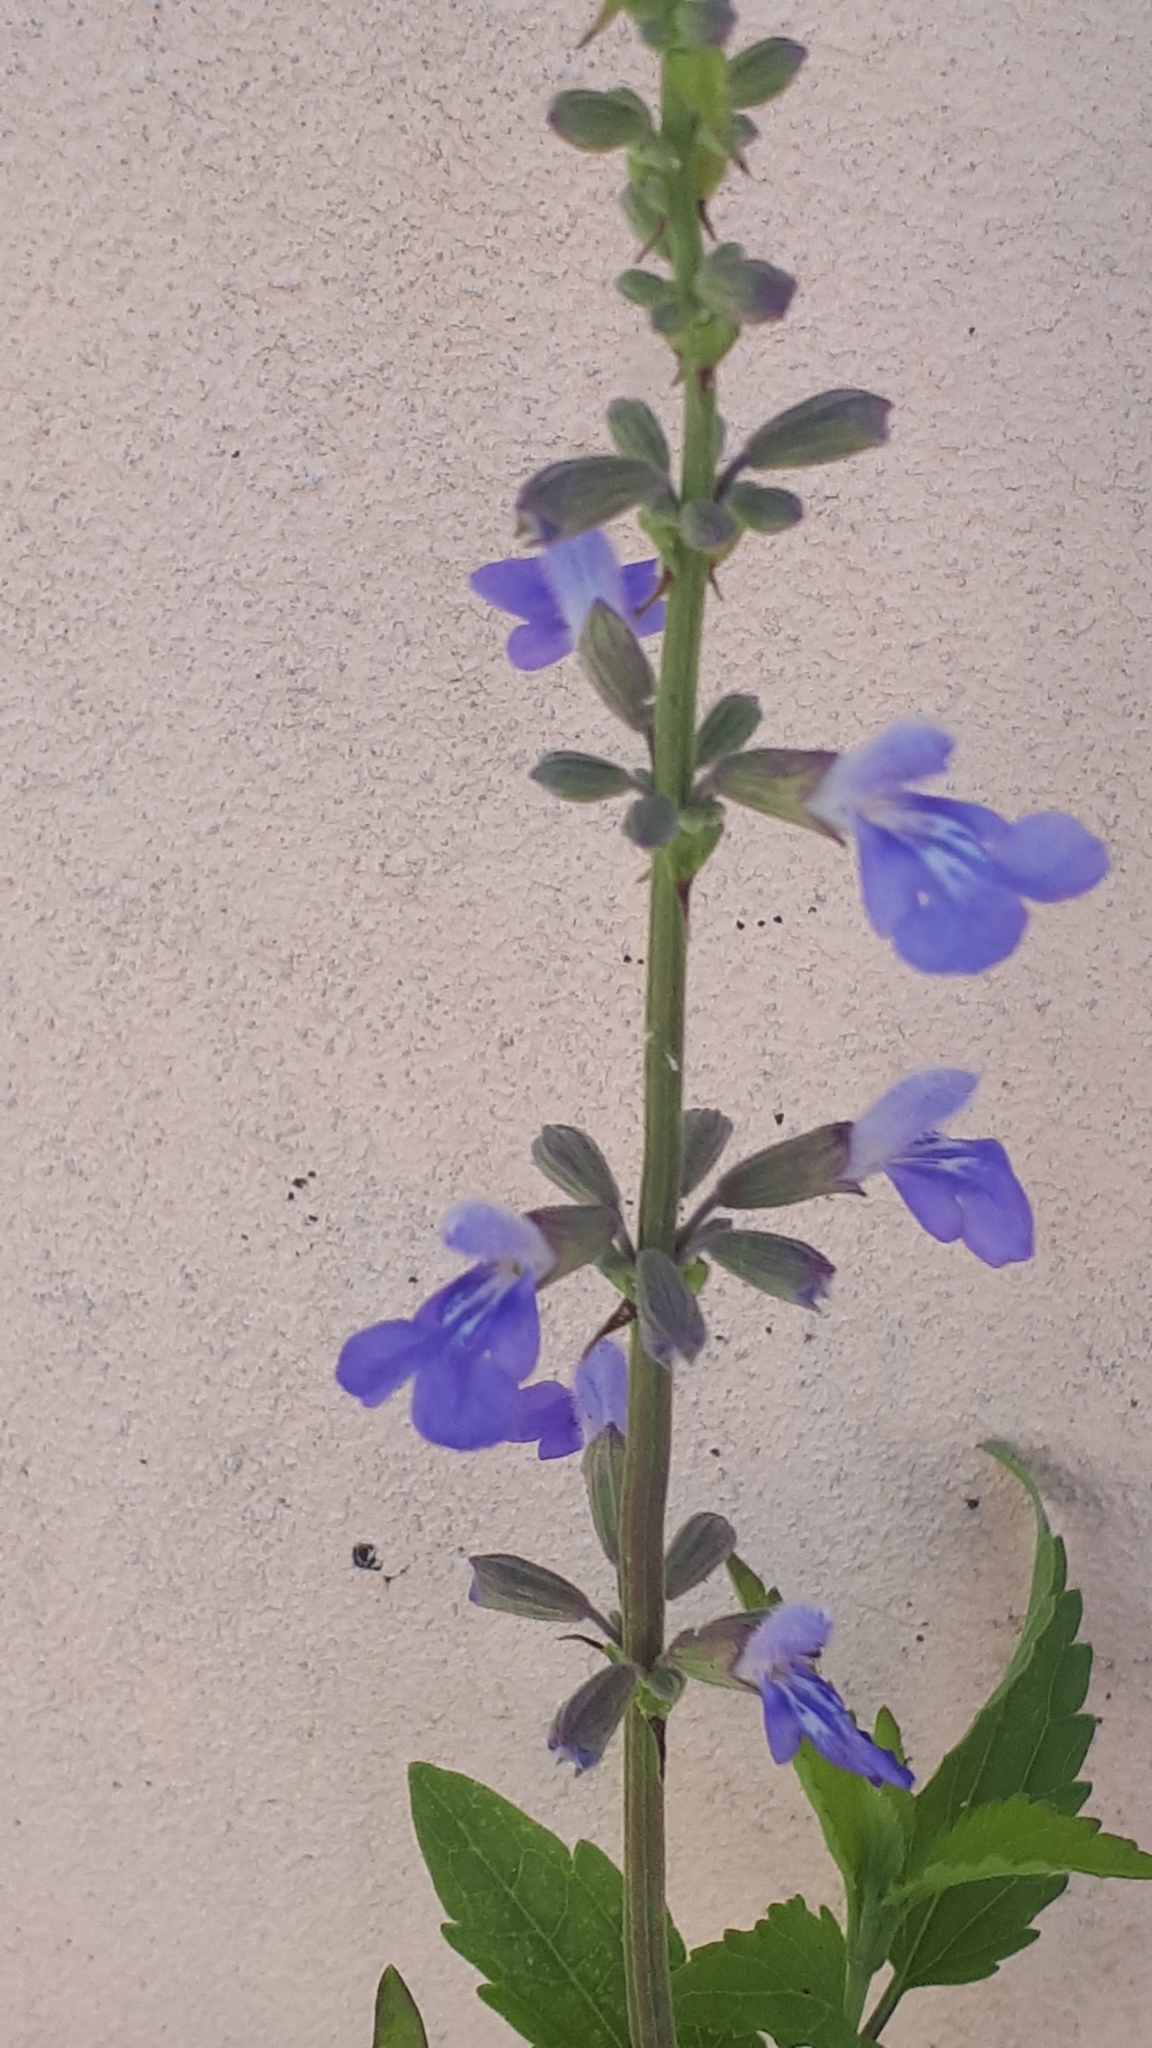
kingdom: Plantae
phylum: Tracheophyta
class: Magnoliopsida
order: Lamiales
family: Lamiaceae
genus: Salvia
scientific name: Salvia pallida
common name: Pale sage
